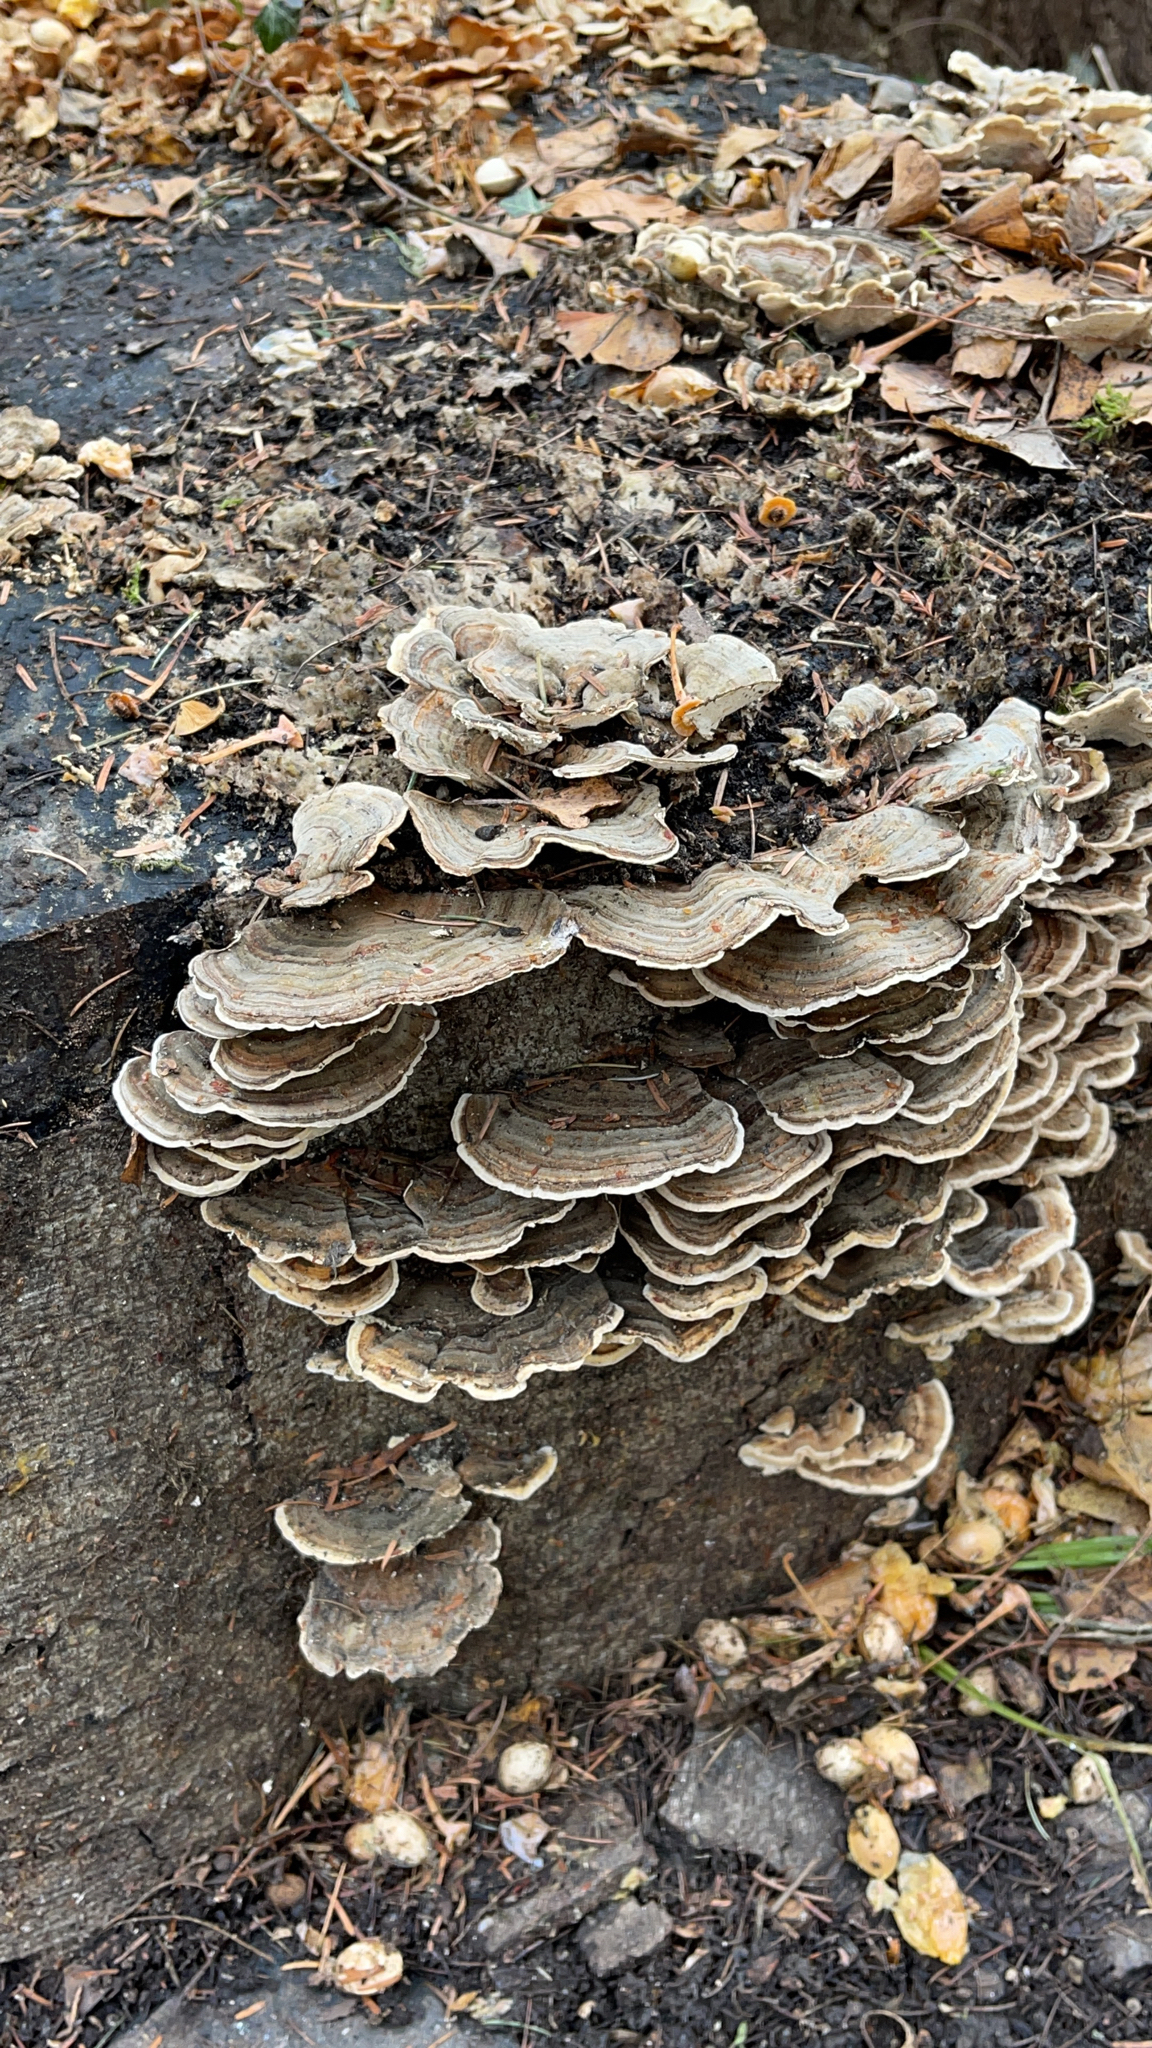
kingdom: Fungi
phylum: Basidiomycota
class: Agaricomycetes
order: Polyporales
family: Polyporaceae
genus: Trametes
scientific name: Trametes versicolor
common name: Turkeytail
